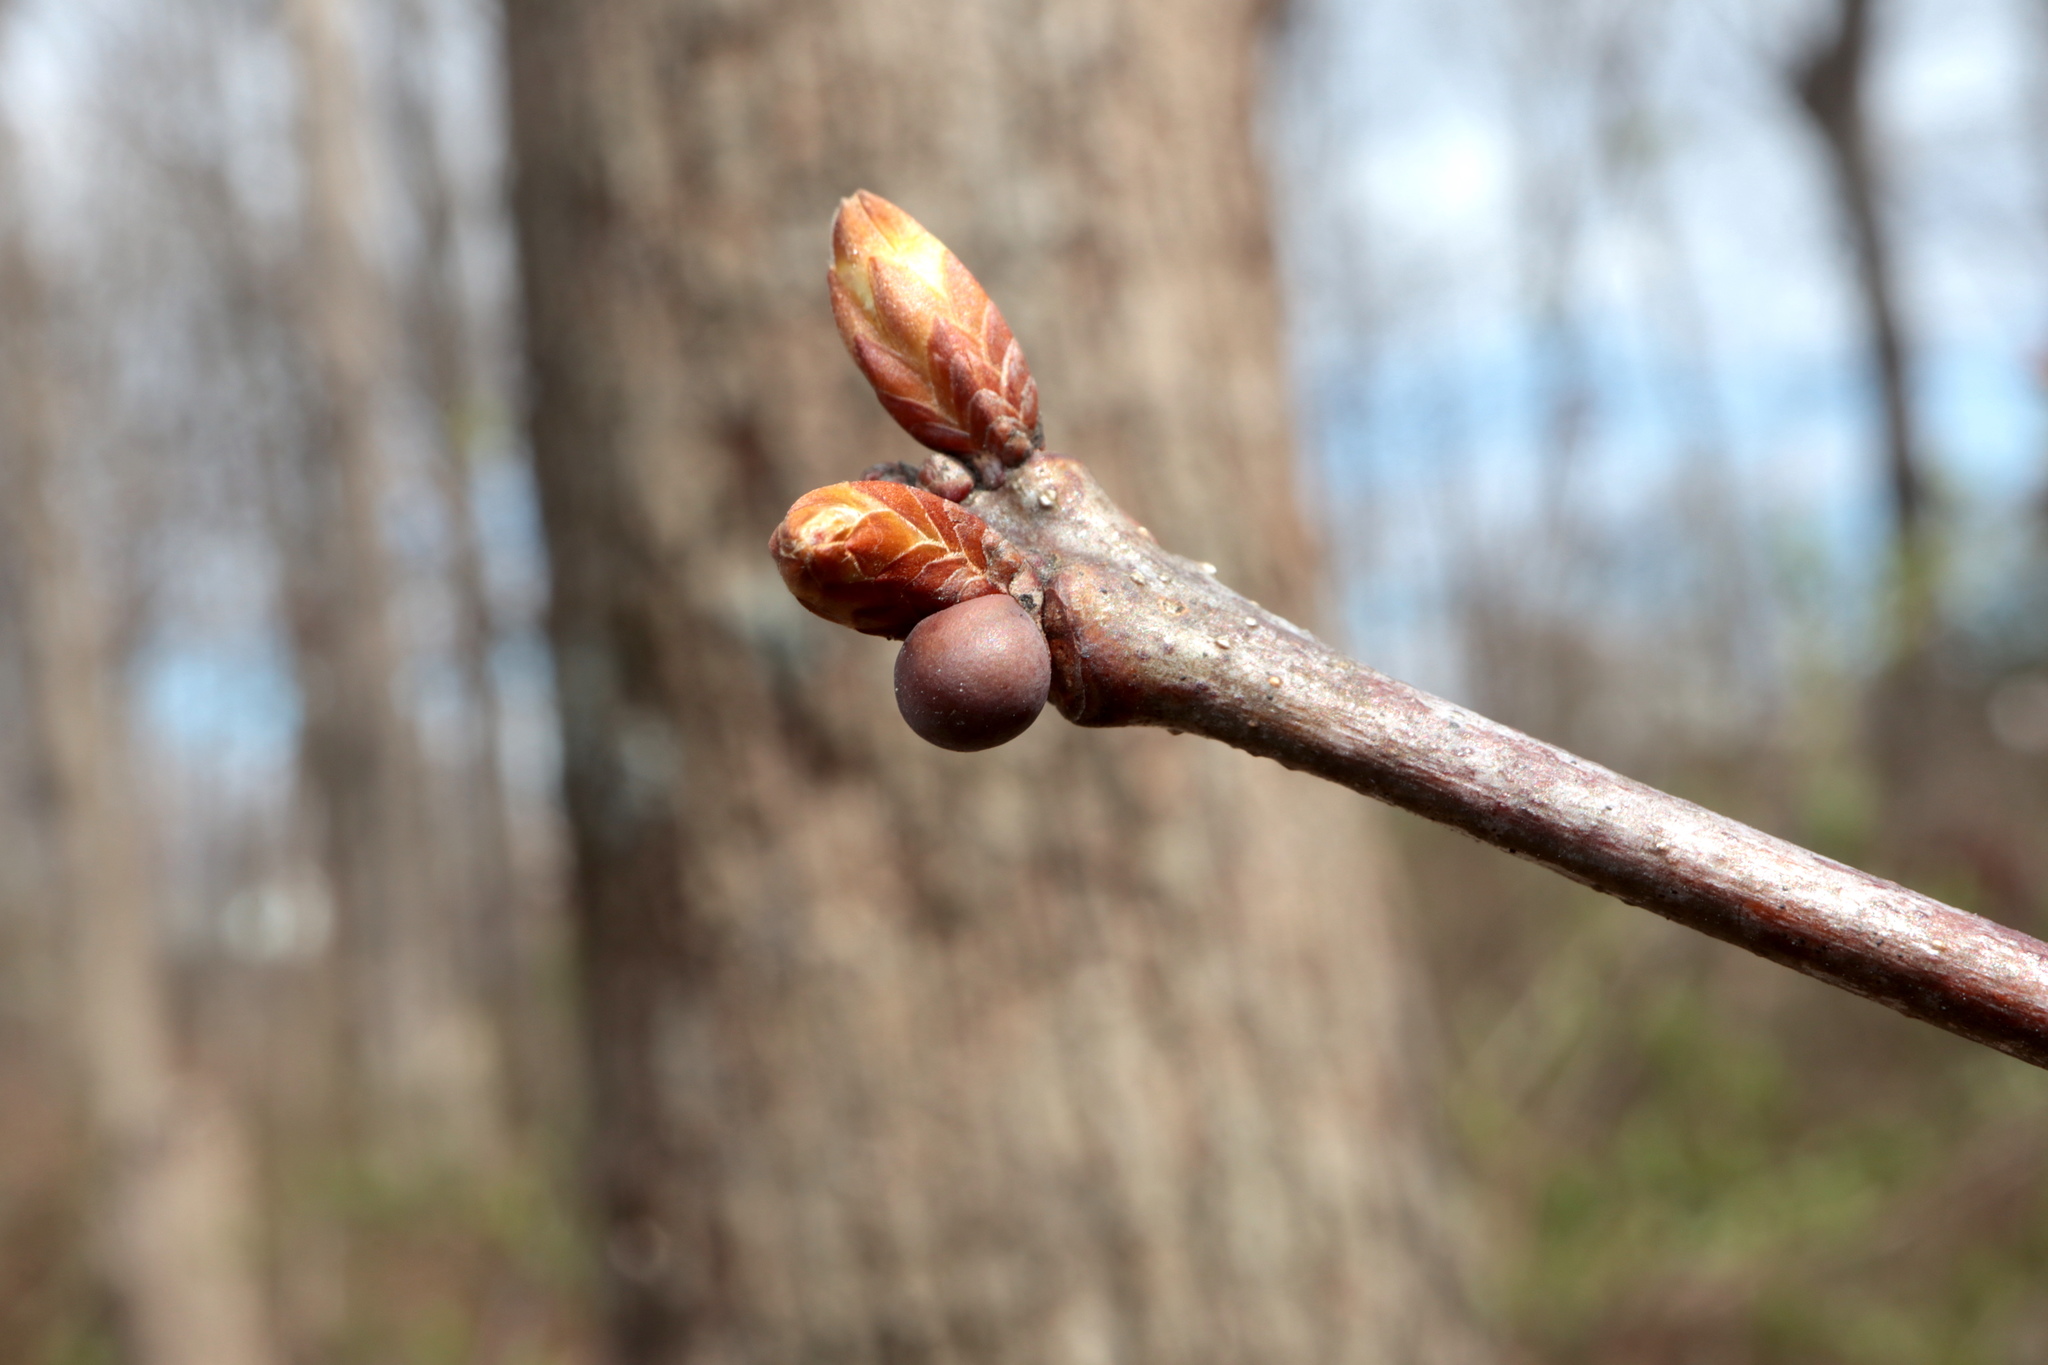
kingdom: Animalia
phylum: Arthropoda
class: Insecta
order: Hymenoptera
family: Cynipidae
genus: Neuroterus
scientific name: Neuroterus
